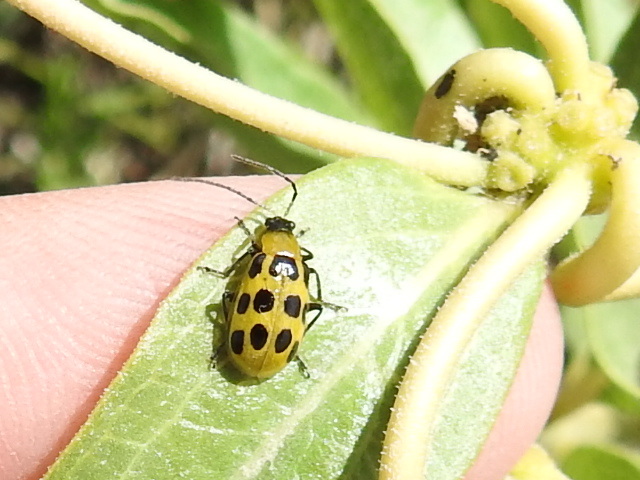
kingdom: Animalia
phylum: Arthropoda
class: Insecta
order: Coleoptera
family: Chrysomelidae
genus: Diabrotica
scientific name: Diabrotica undecimpunctata
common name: Spotted cucumber beetle
